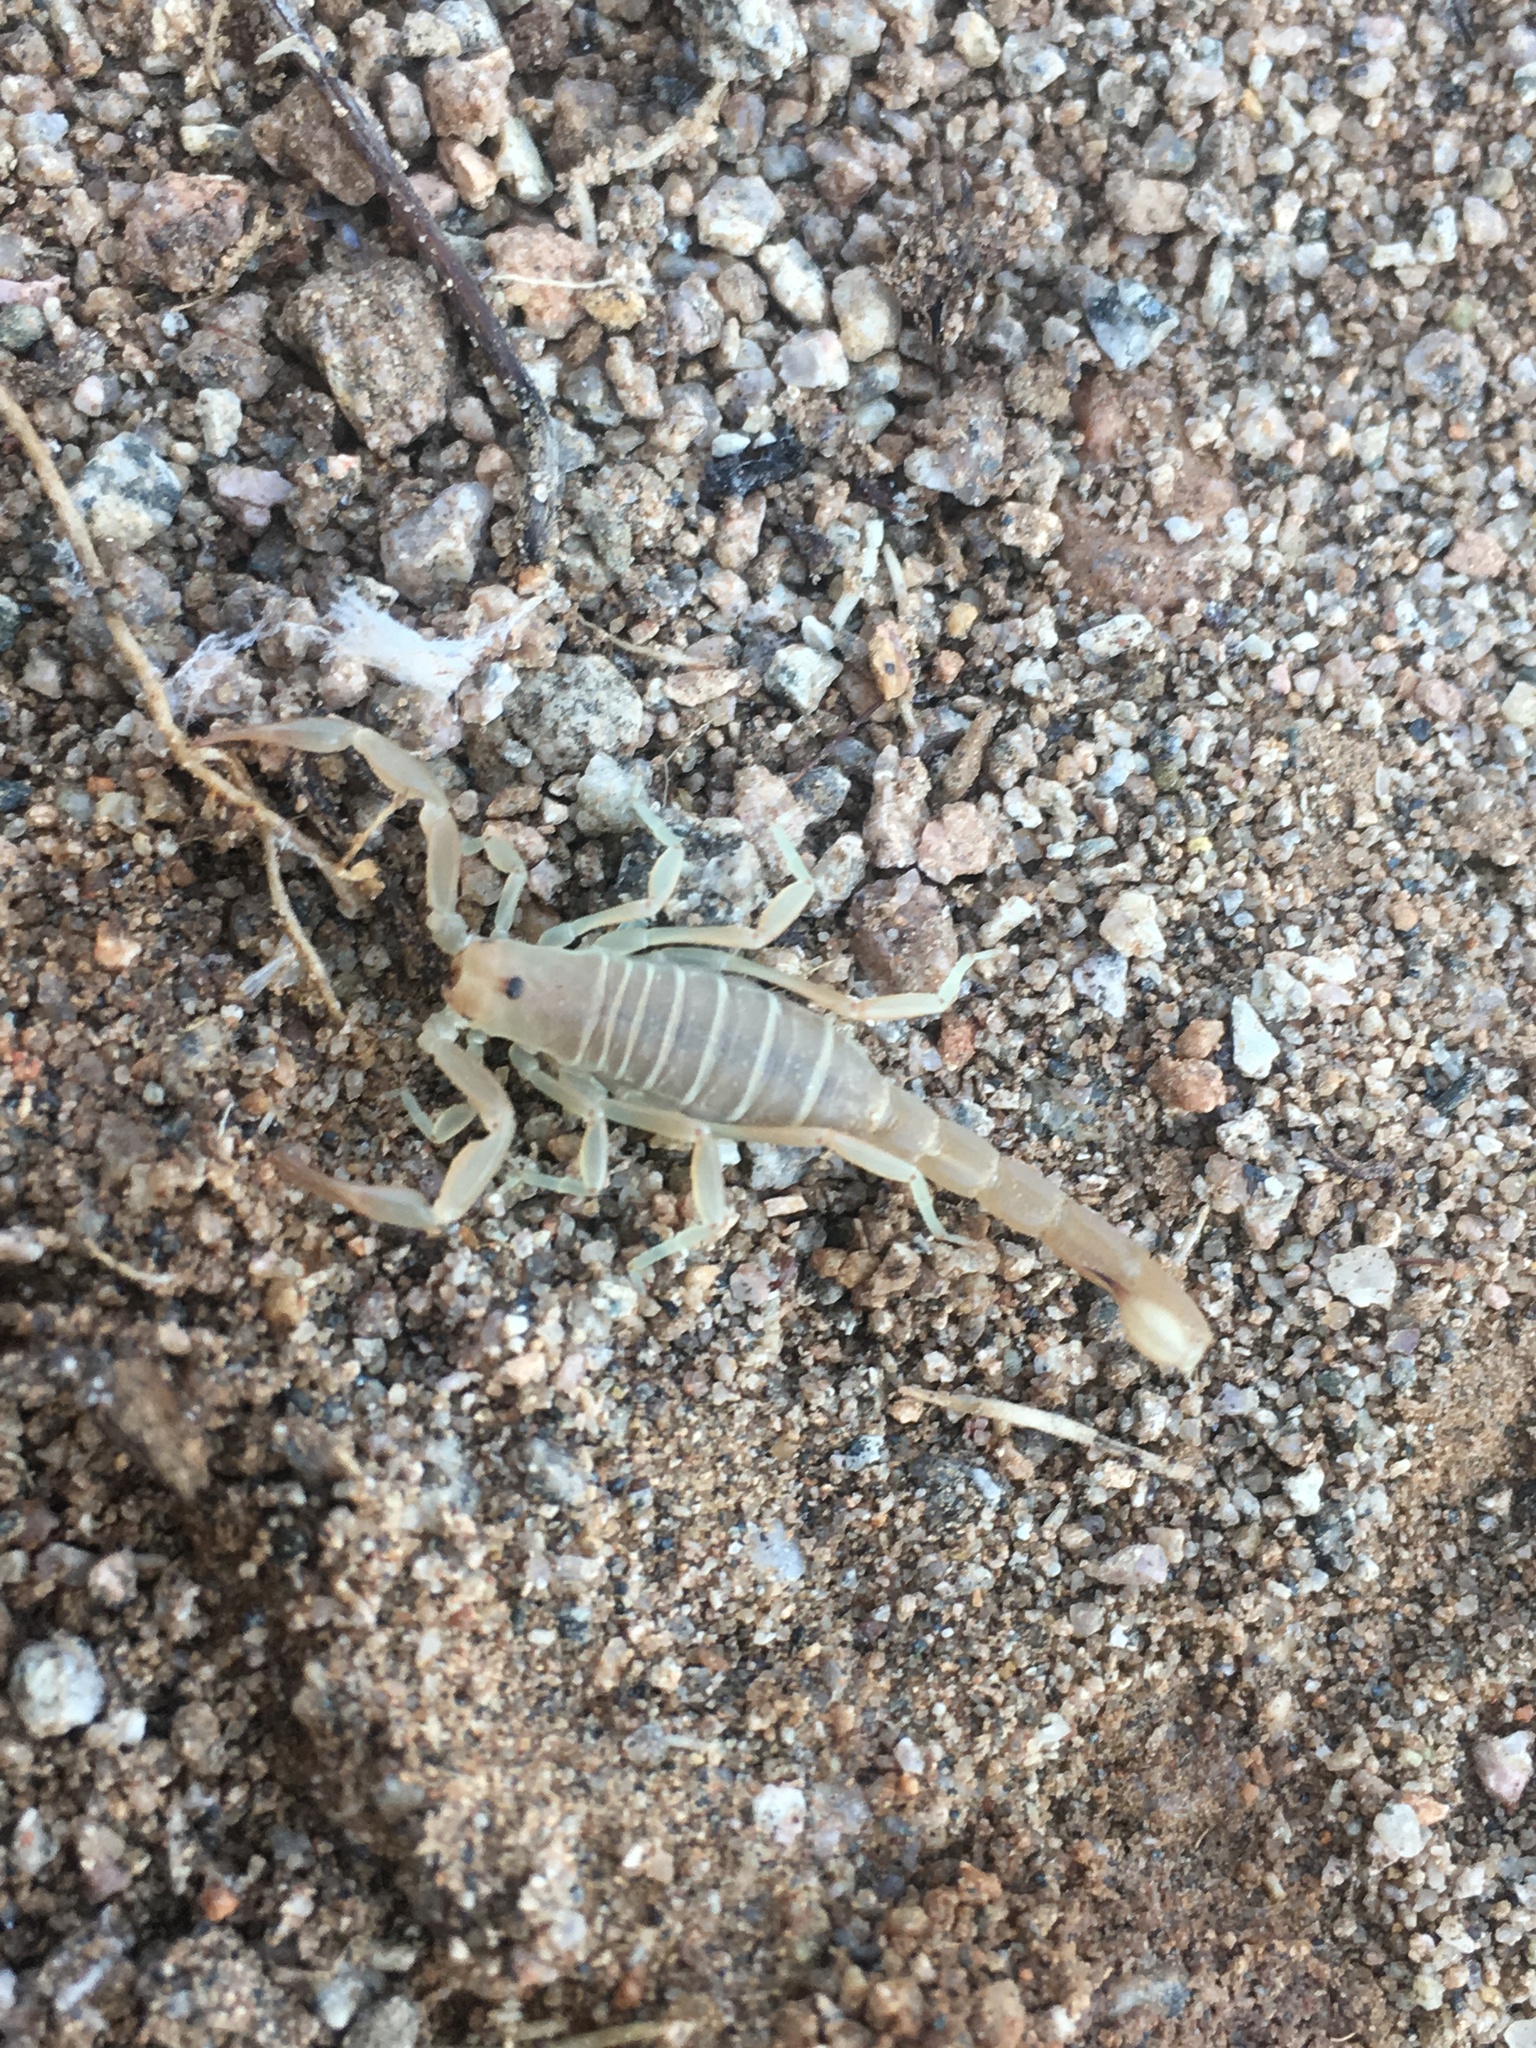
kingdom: Animalia
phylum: Arthropoda
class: Arachnida
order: Scorpiones
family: Vaejovidae
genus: Paravaejovis
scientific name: Paravaejovis confusus
